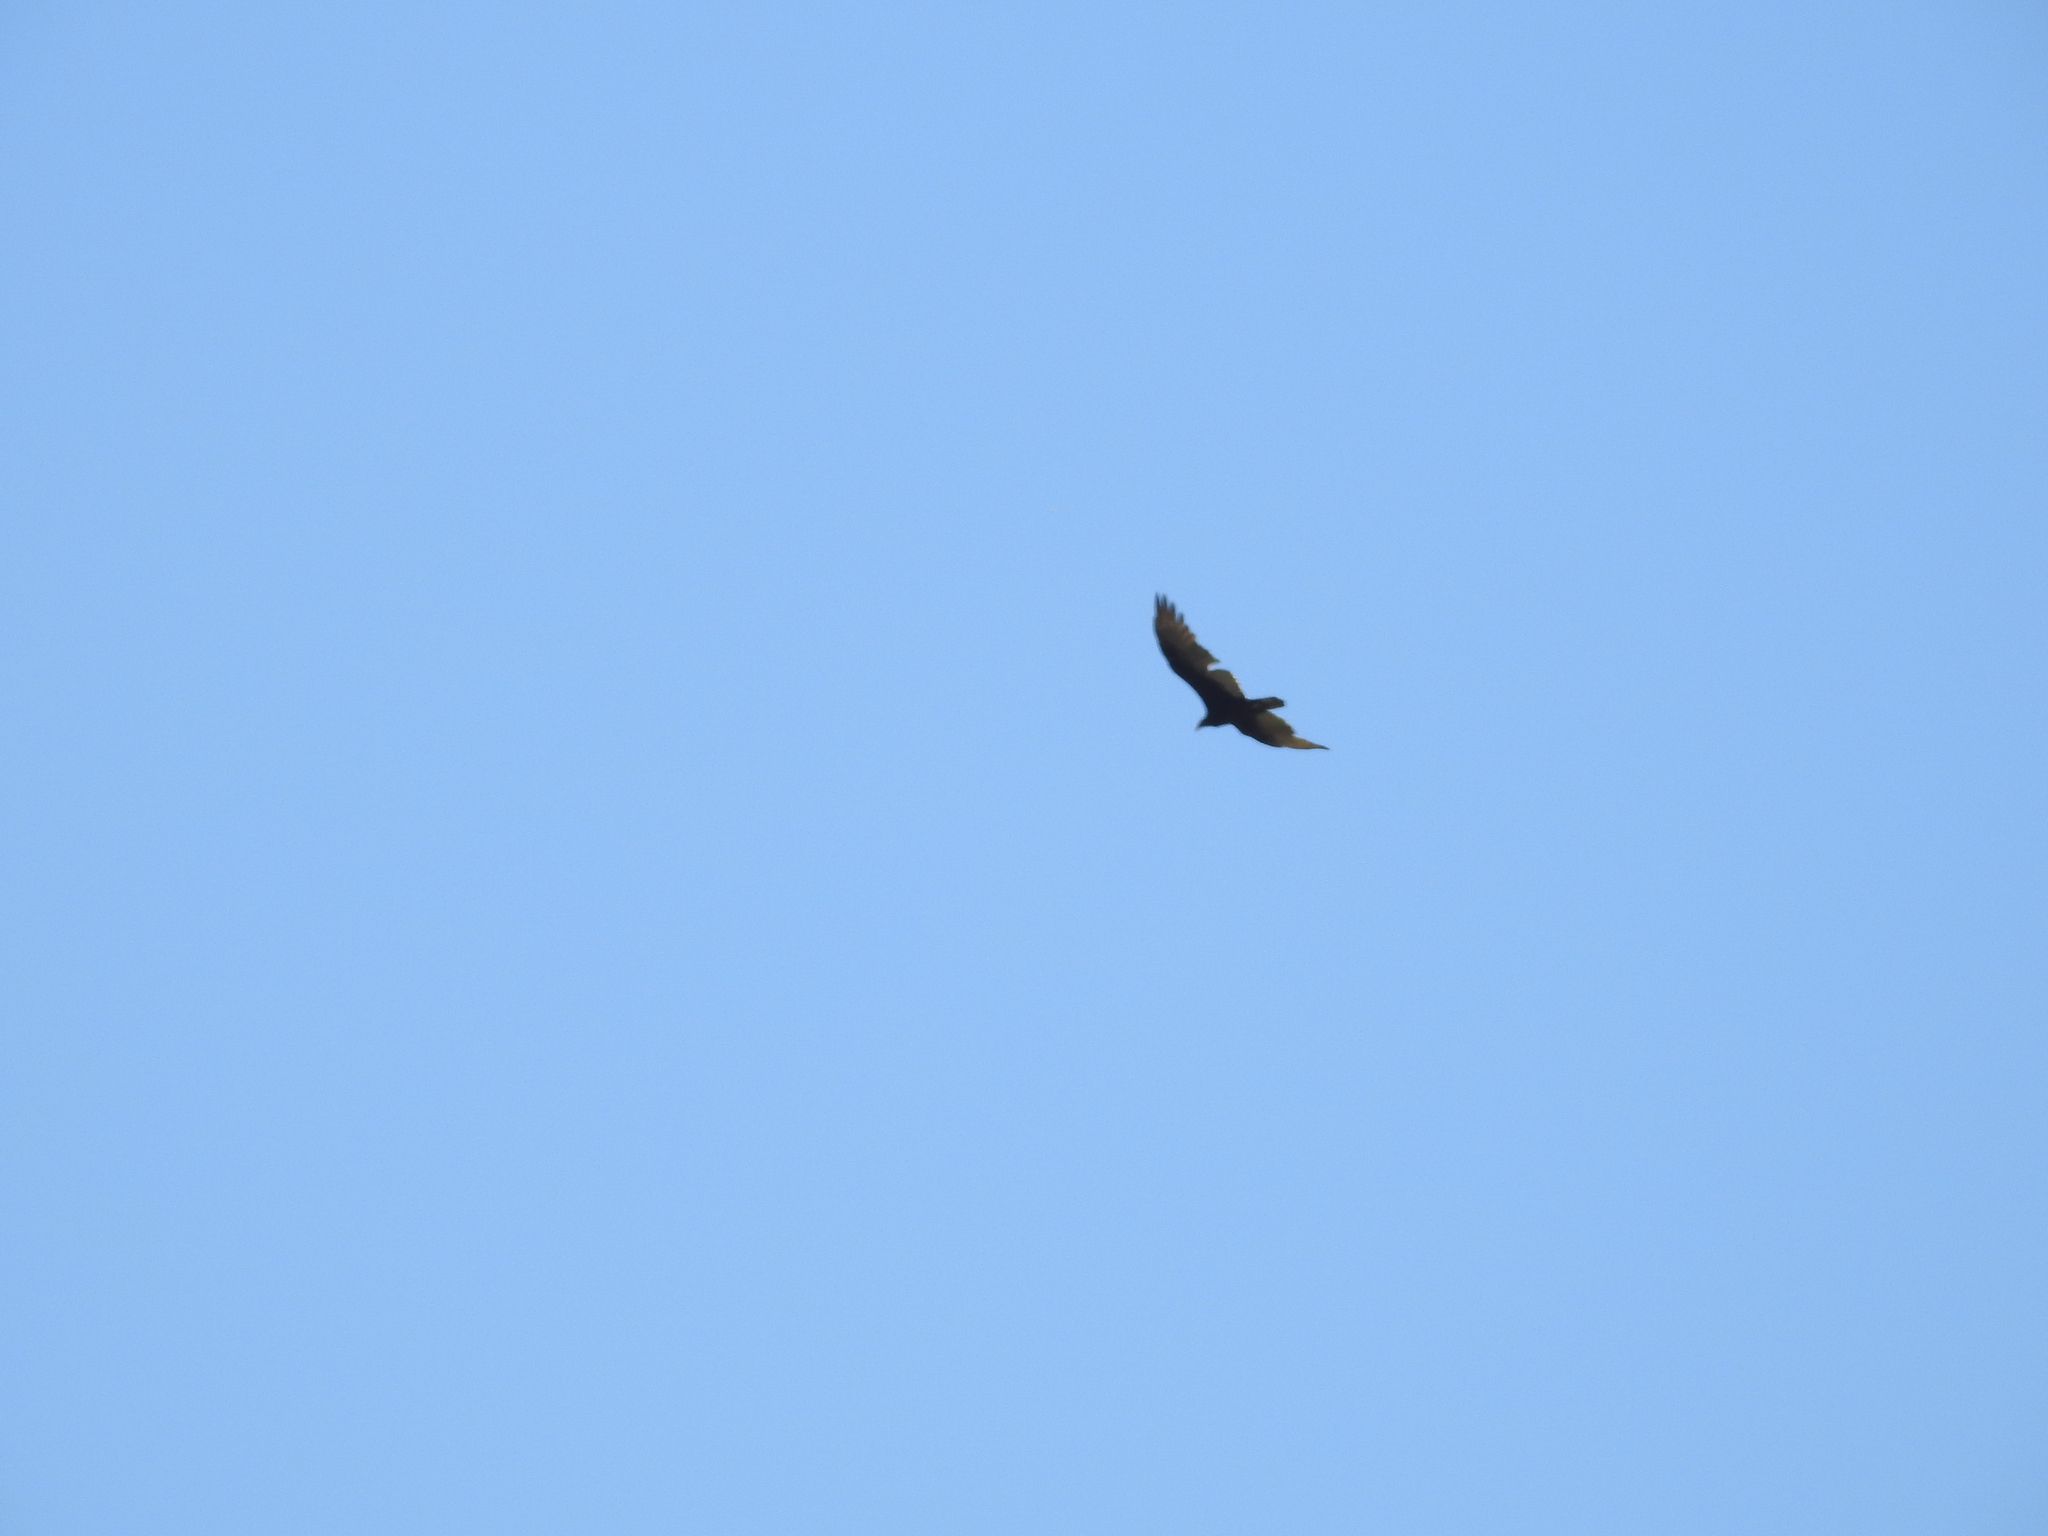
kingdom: Animalia
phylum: Chordata
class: Aves
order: Accipitriformes
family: Cathartidae
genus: Cathartes
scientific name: Cathartes aura
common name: Turkey vulture
